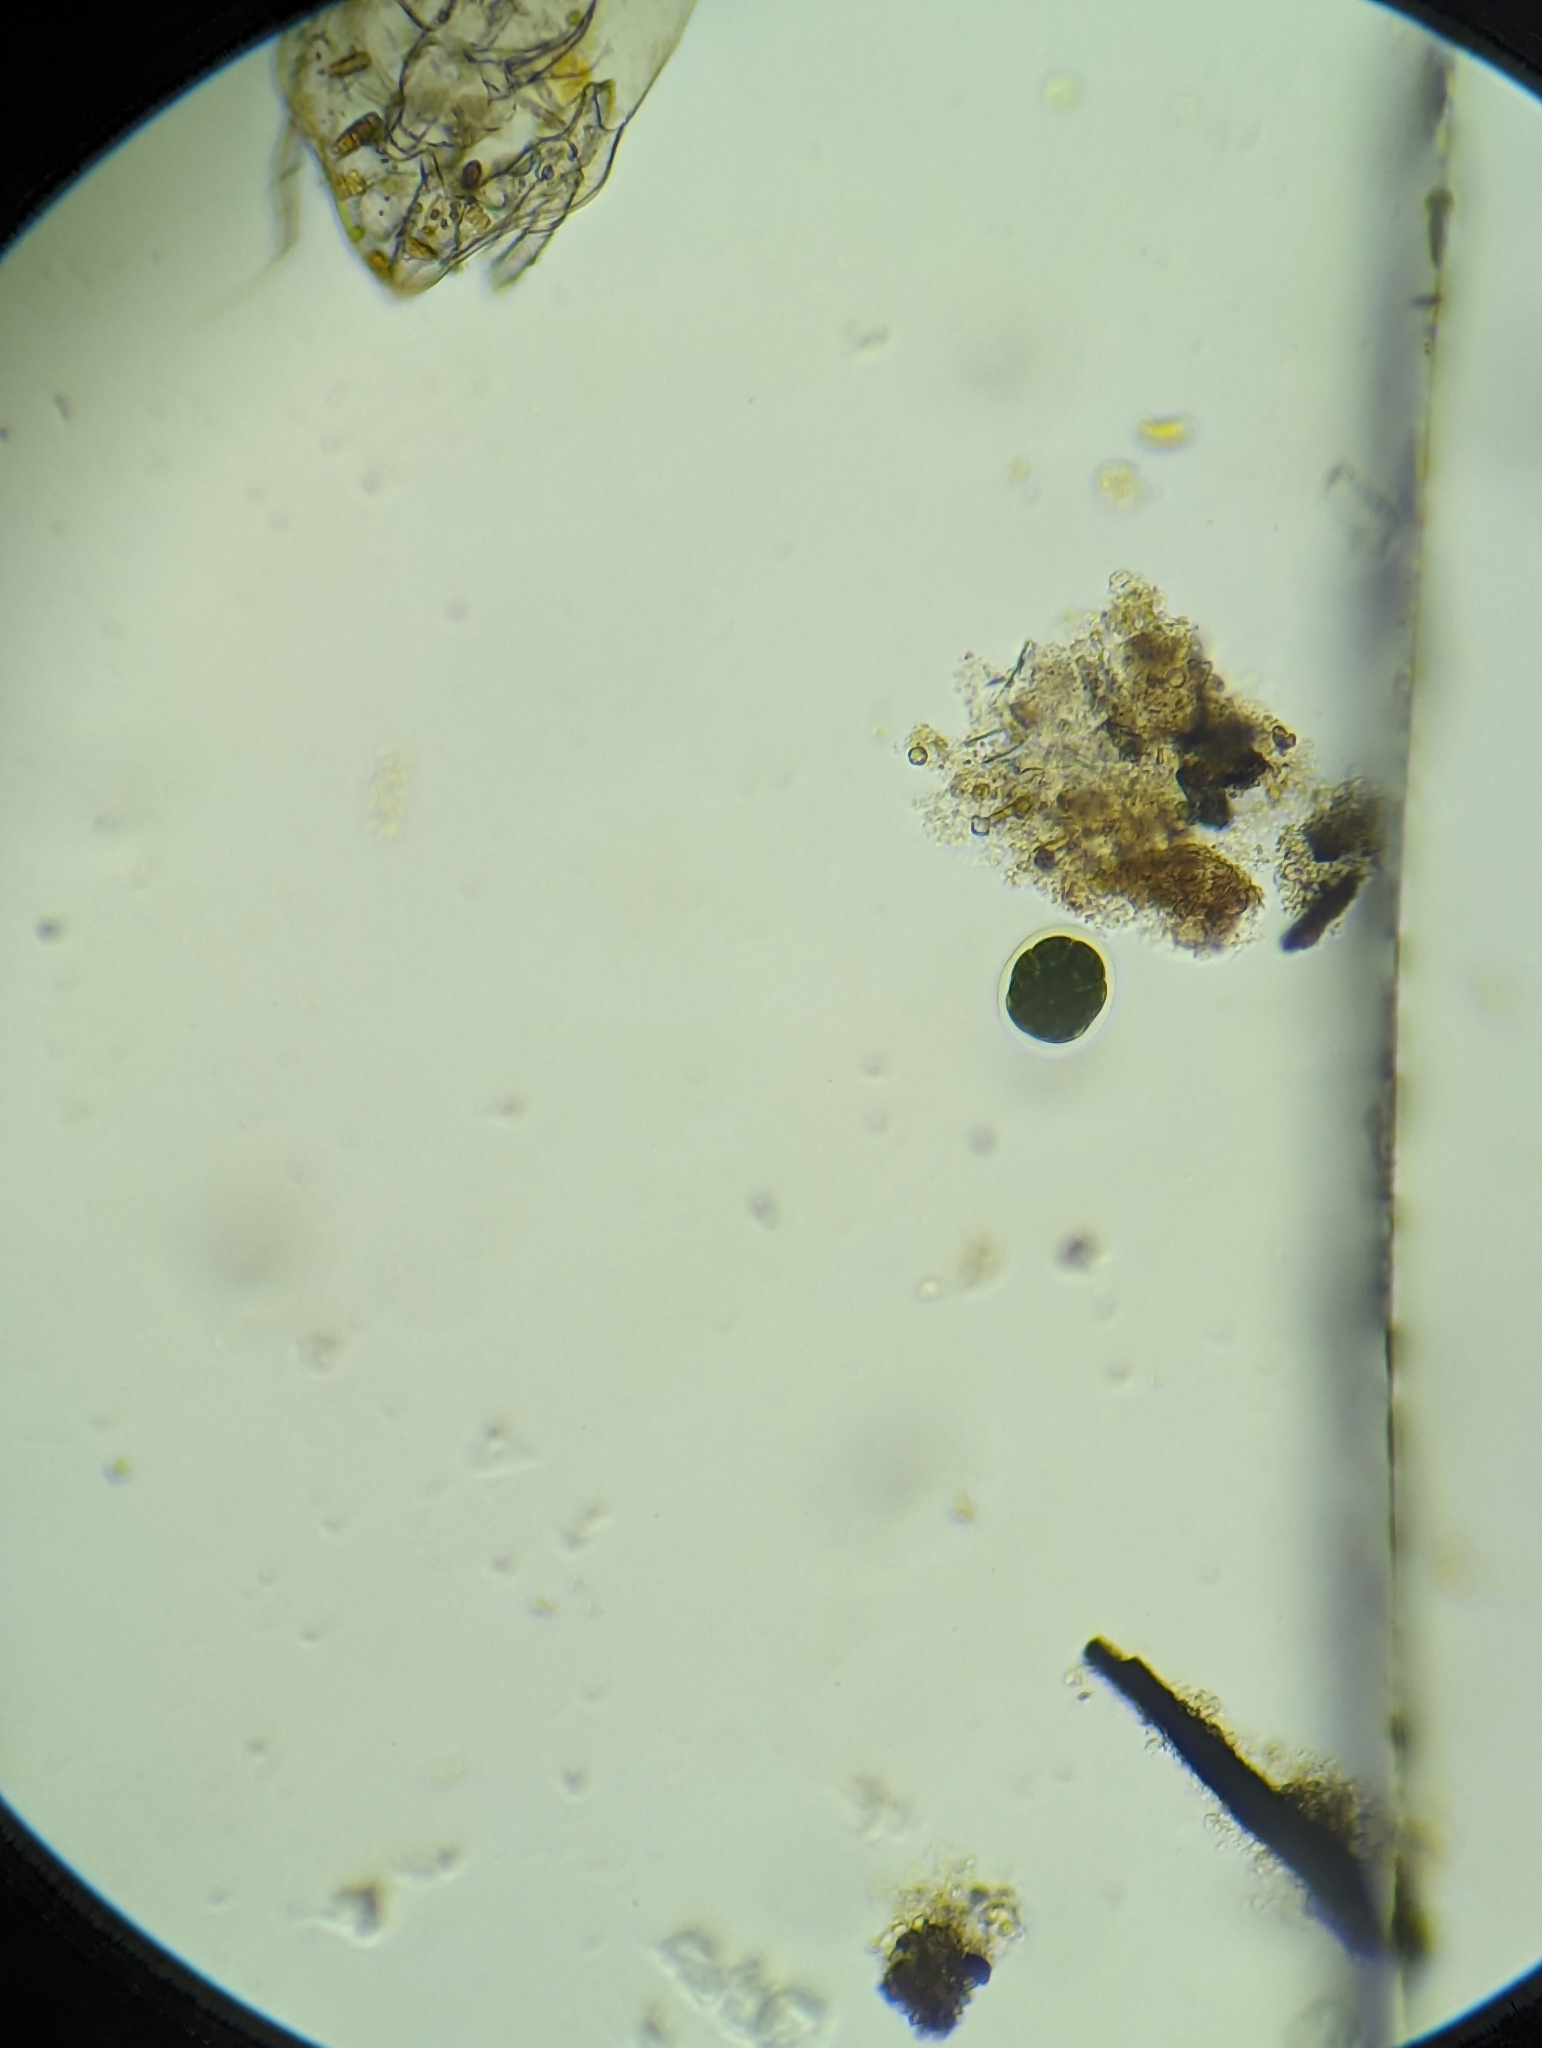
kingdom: Plantae
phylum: Chlorophyta
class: Chlorophyceae
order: Volvocales
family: Volvocaceae
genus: Pandorina
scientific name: Pandorina morum
